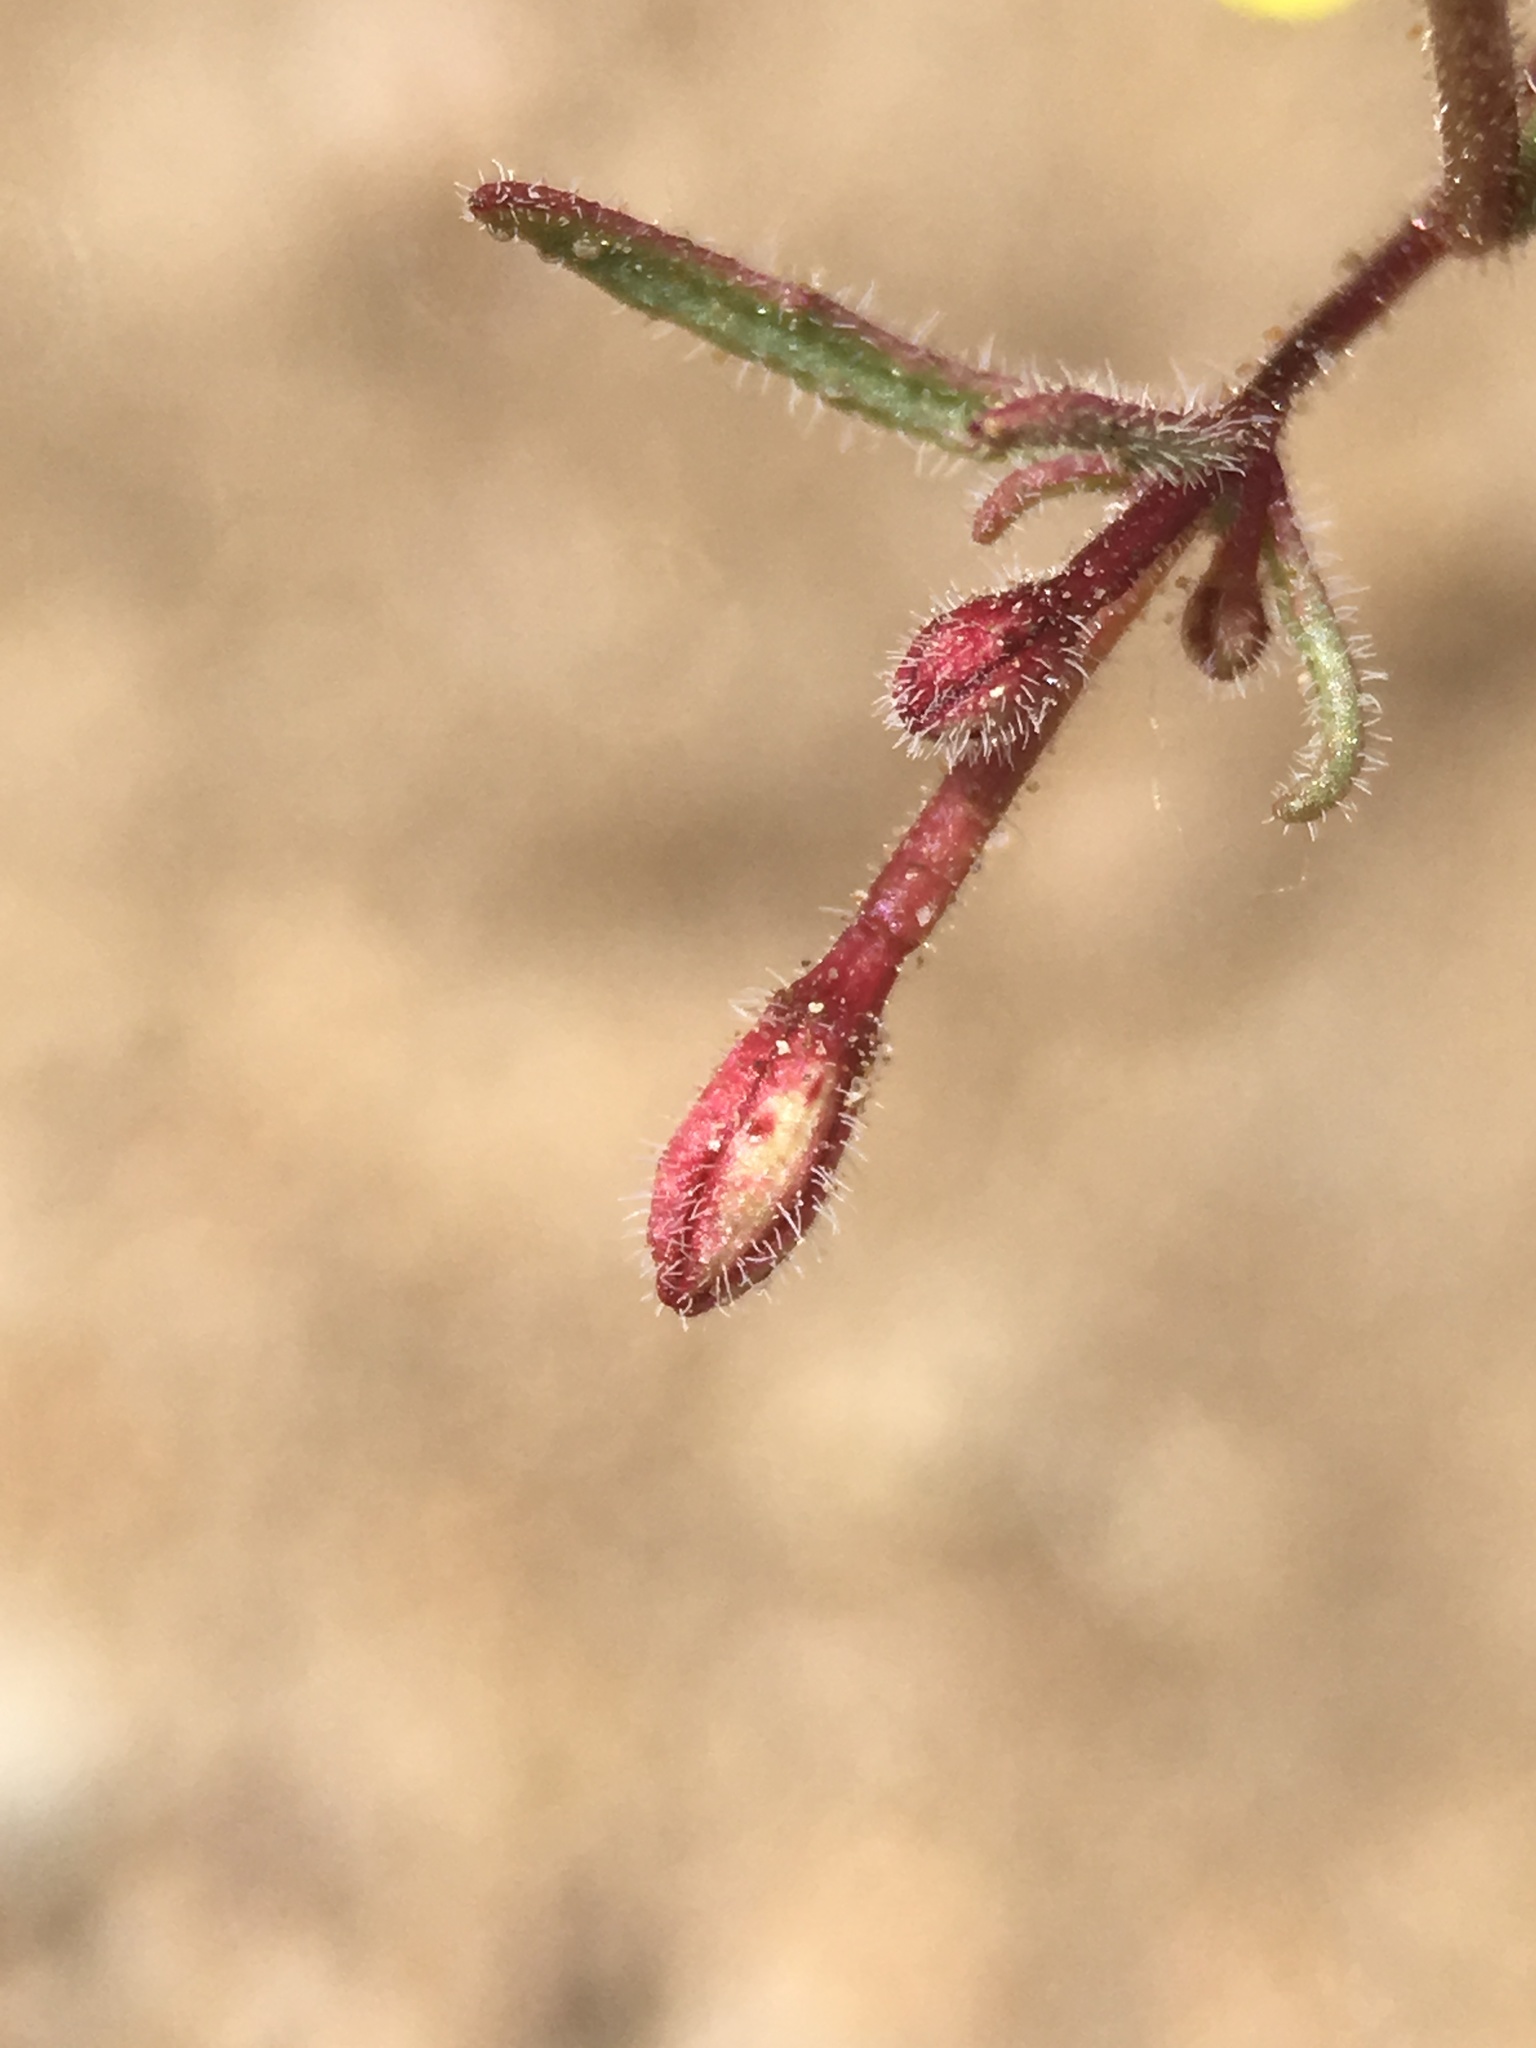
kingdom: Plantae
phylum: Tracheophyta
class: Magnoliopsida
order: Myrtales
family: Onagraceae
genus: Camissonia
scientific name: Camissonia pusilla
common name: Obscure camissonia
